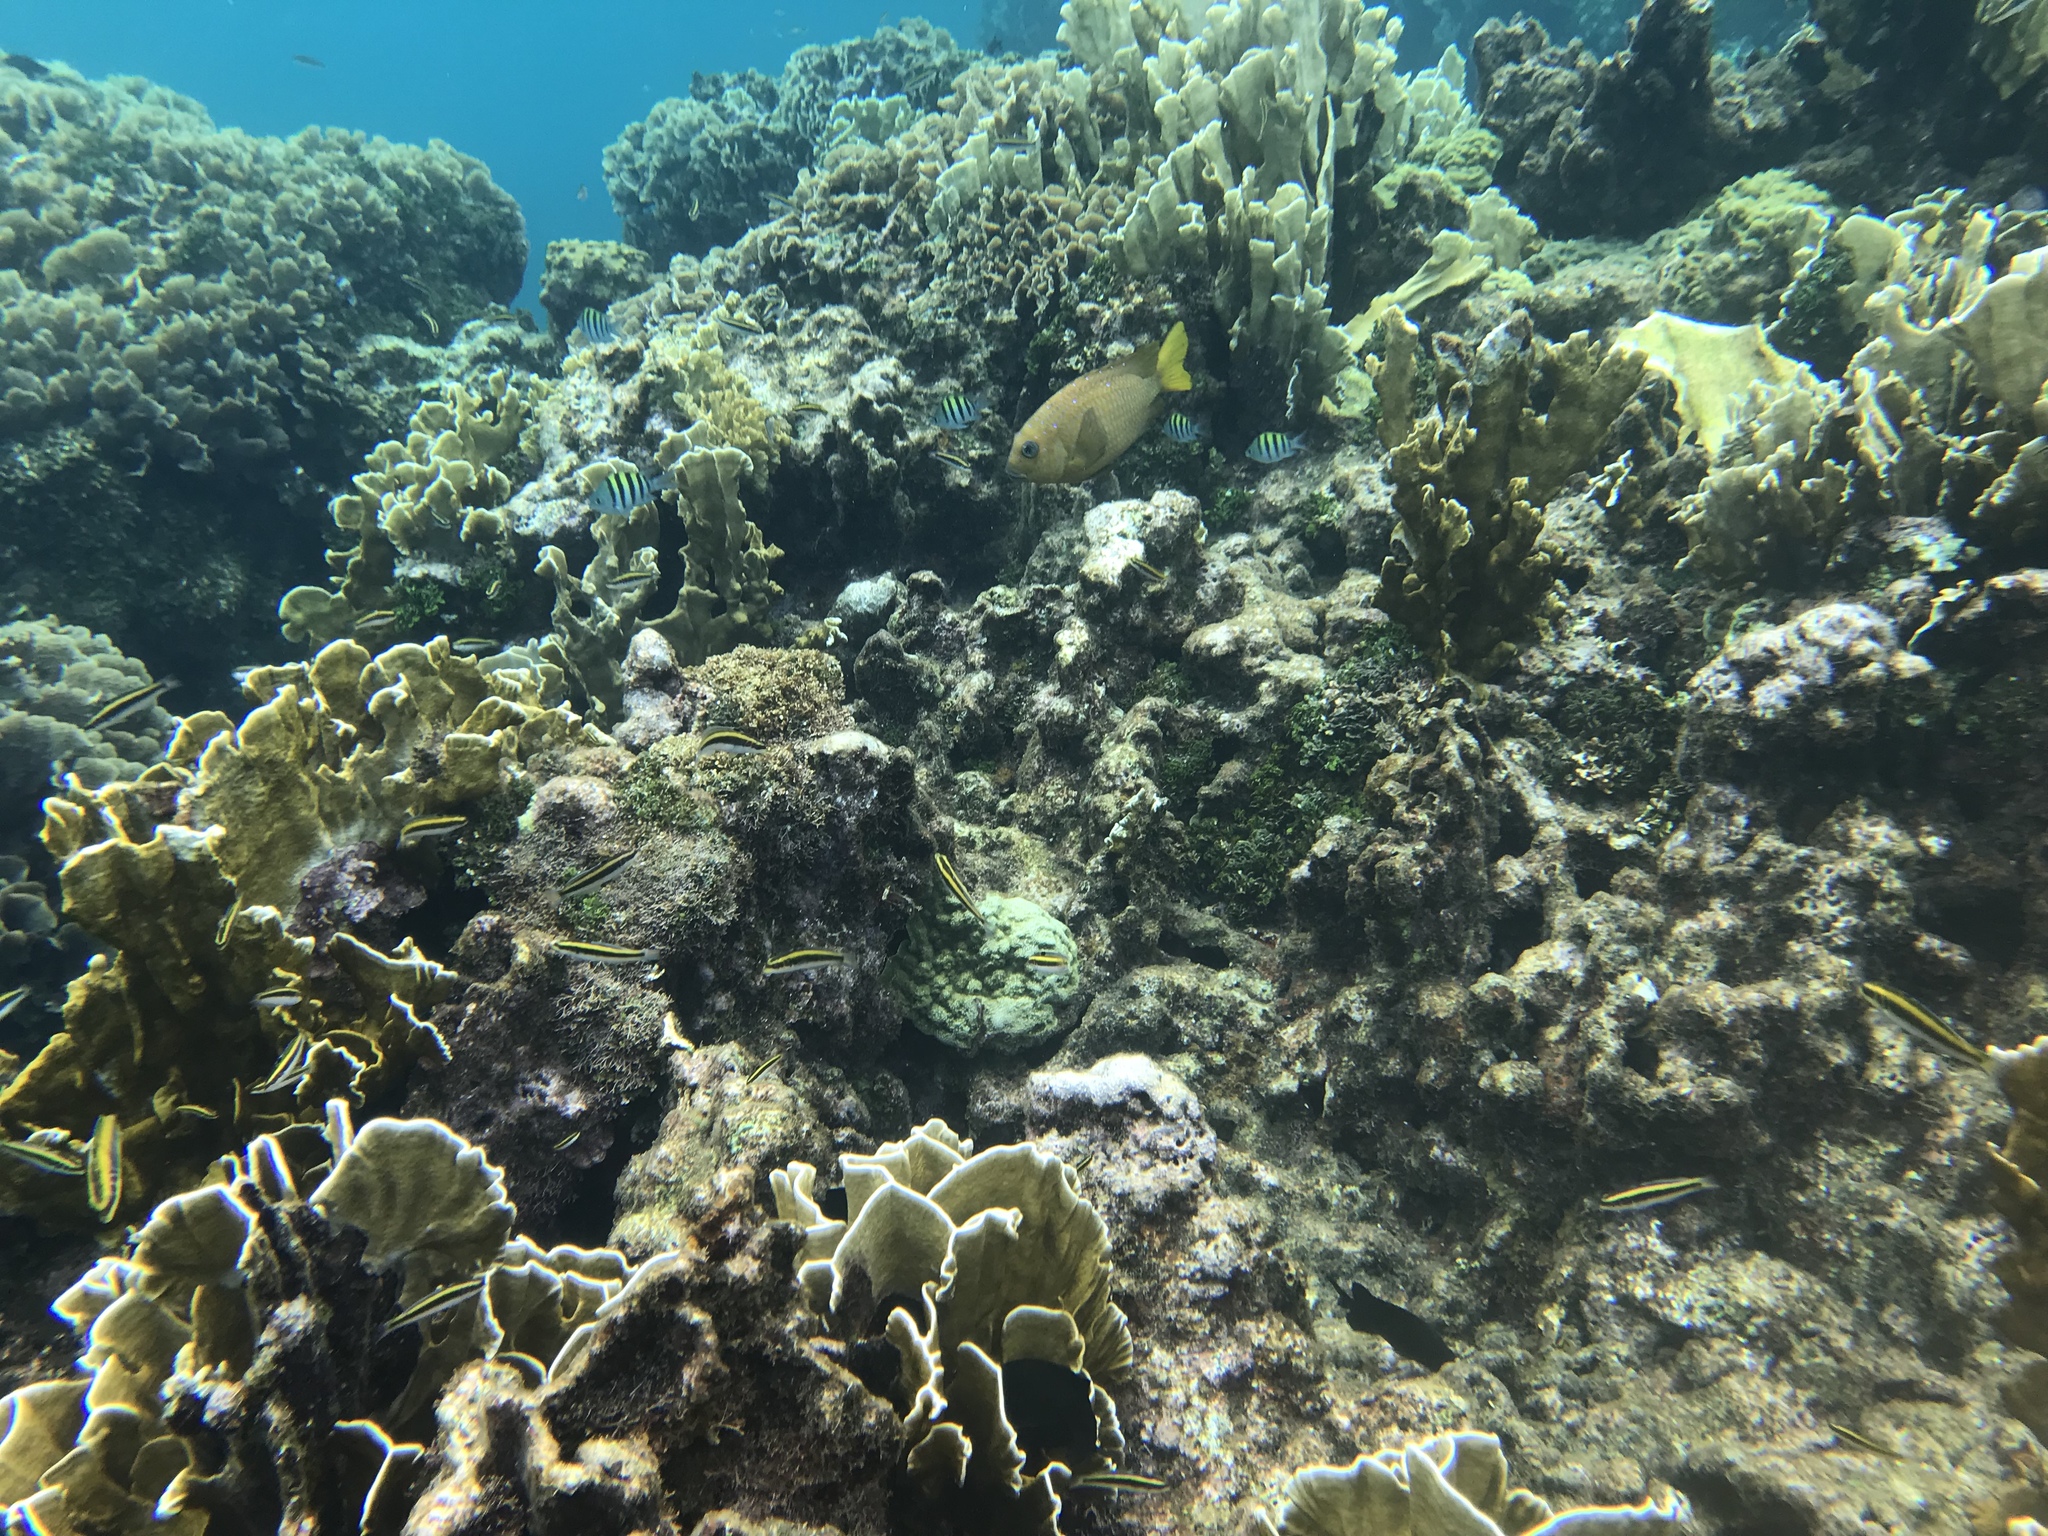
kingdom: Animalia
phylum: Chordata
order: Perciformes
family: Pomacentridae
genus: Microspathodon
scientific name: Microspathodon chrysurus
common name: Yellowtail damselfish
